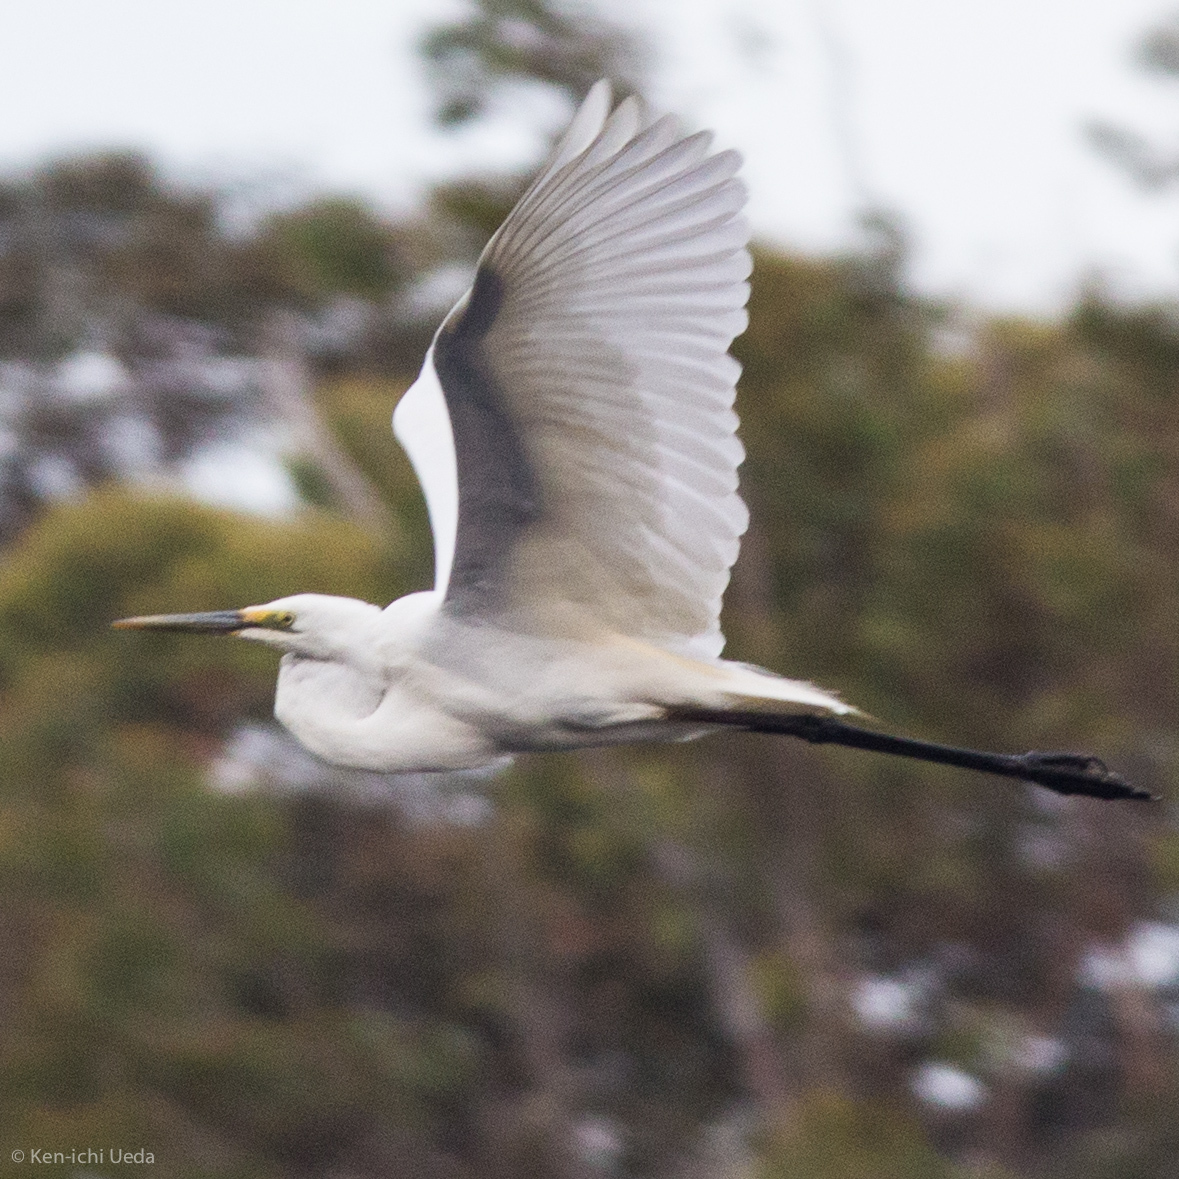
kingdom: Animalia
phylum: Chordata
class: Aves
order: Pelecaniformes
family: Ardeidae
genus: Ardea
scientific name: Ardea modesta
